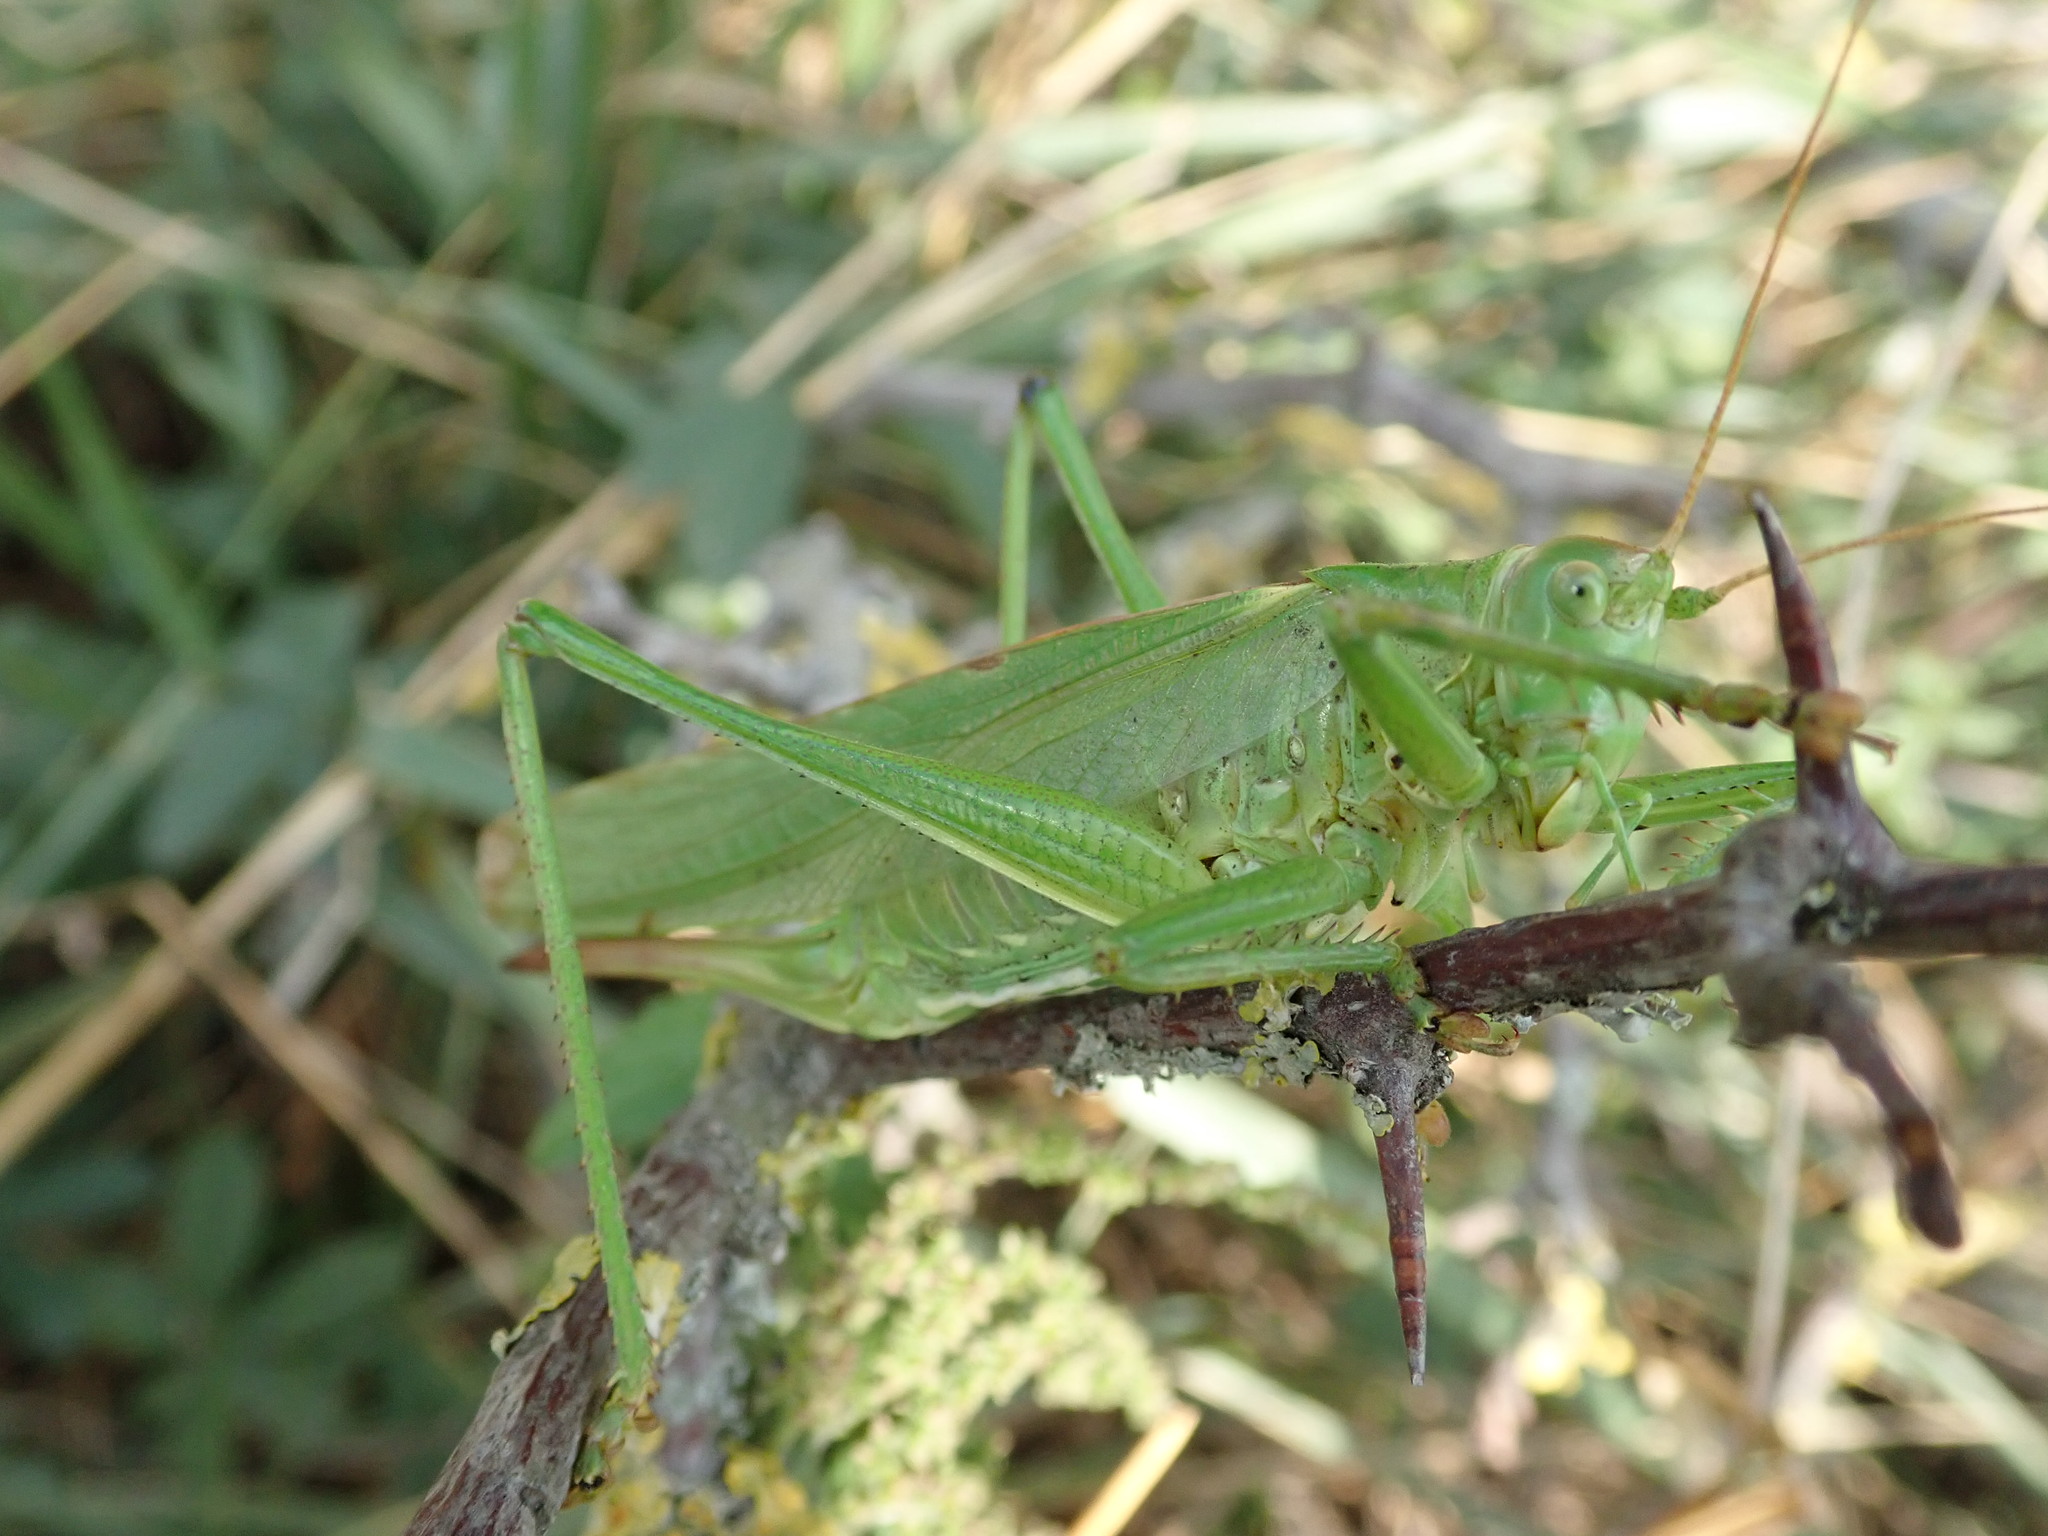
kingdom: Animalia
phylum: Arthropoda
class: Insecta
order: Orthoptera
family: Tettigoniidae
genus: Tettigonia
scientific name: Tettigonia viridissima
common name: Great green bush-cricket
